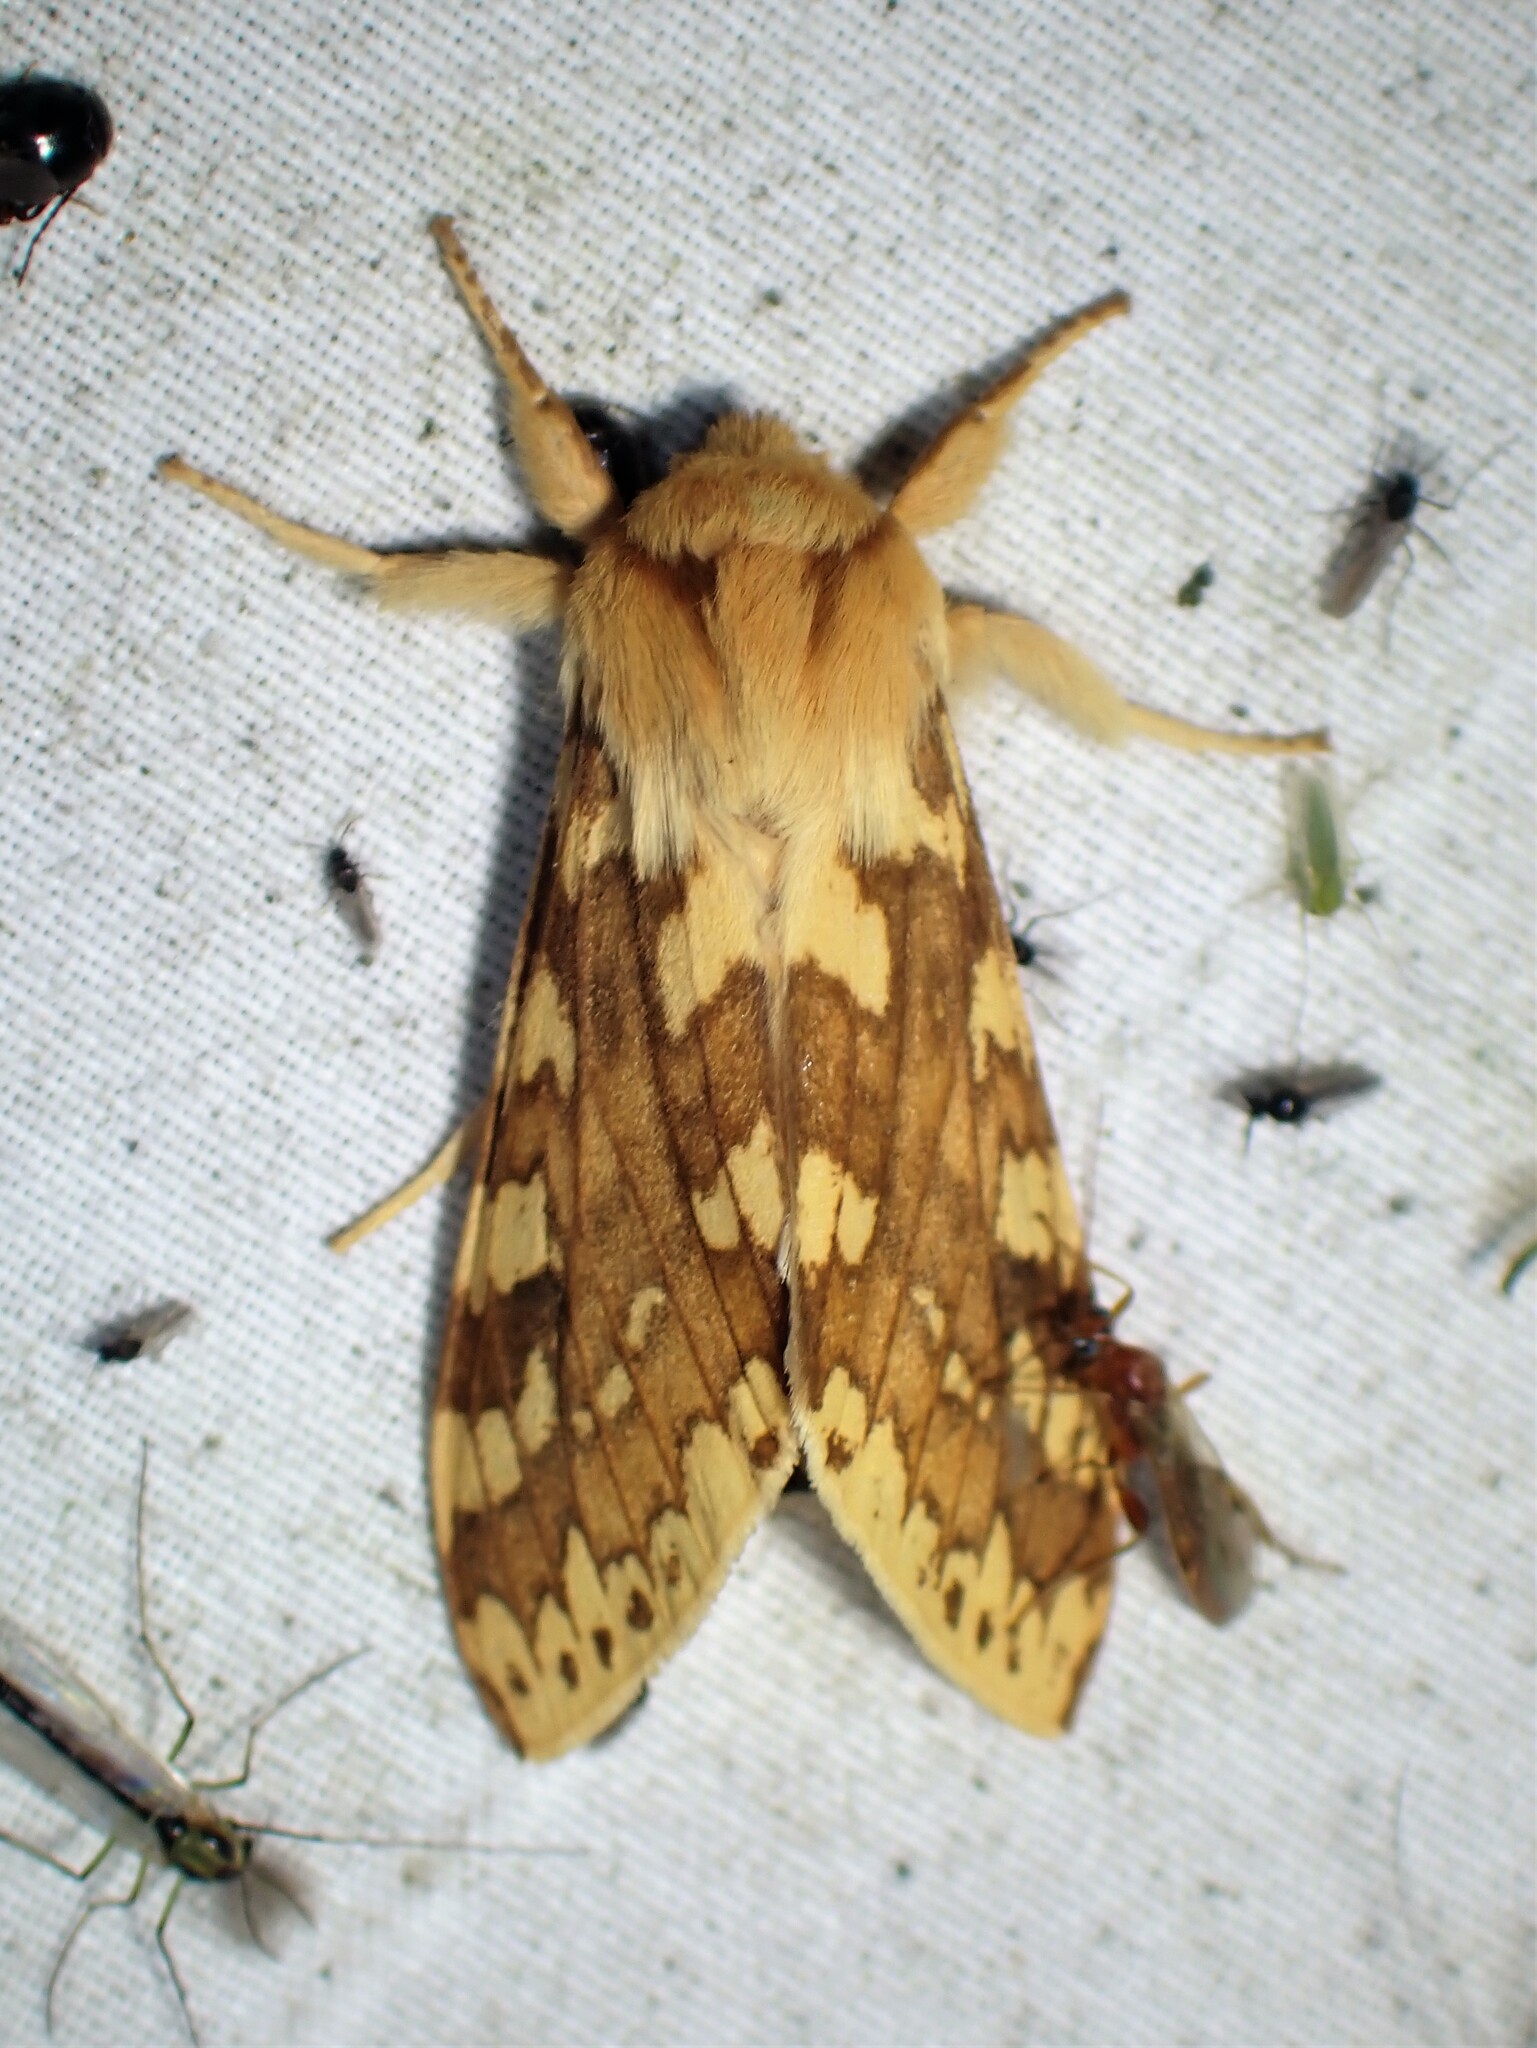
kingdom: Animalia
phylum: Arthropoda
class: Insecta
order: Lepidoptera
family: Erebidae
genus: Lophocampa
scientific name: Lophocampa maculata
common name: Spotted tussock moth
